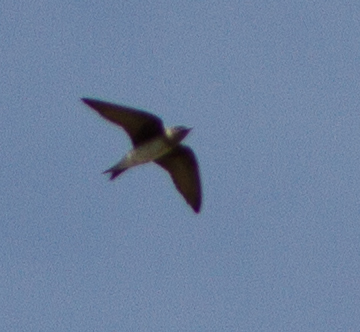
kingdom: Animalia
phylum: Chordata
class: Aves
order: Passeriformes
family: Hirundinidae
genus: Progne
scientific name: Progne subis
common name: Purple martin
